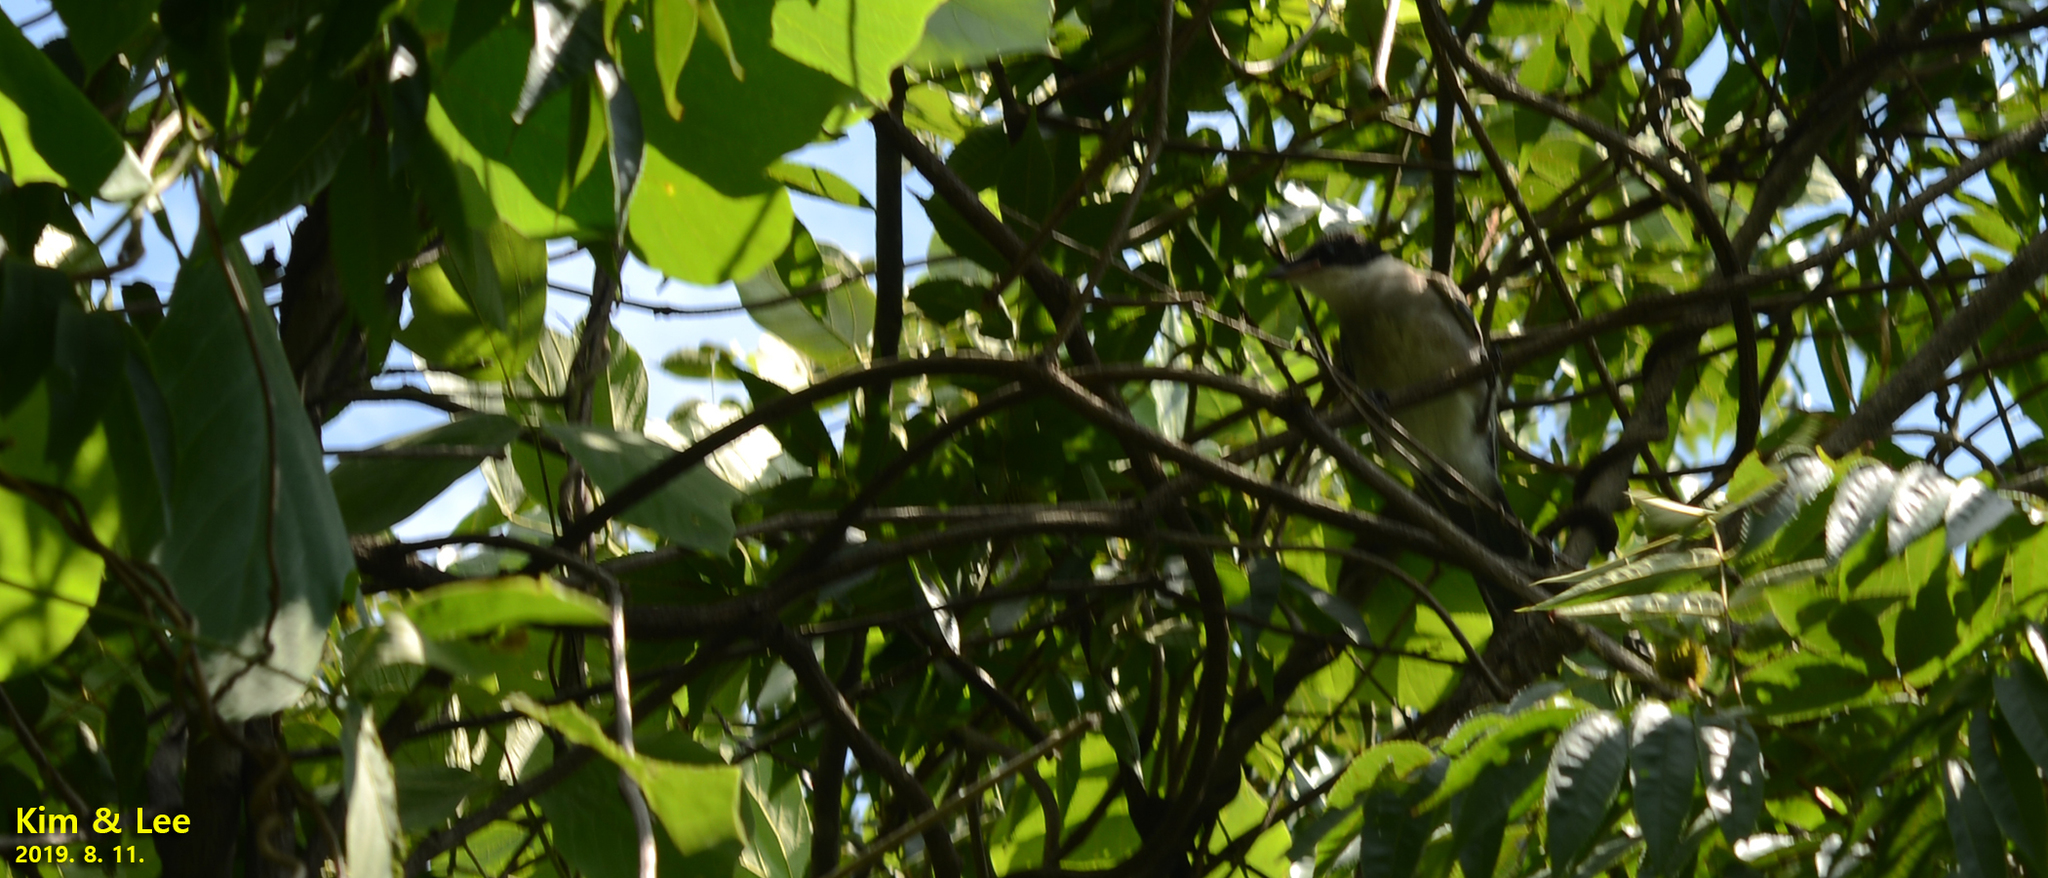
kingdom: Animalia
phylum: Chordata
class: Aves
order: Passeriformes
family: Corvidae
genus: Cyanopica
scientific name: Cyanopica cyanus
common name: Azure-winged magpie
